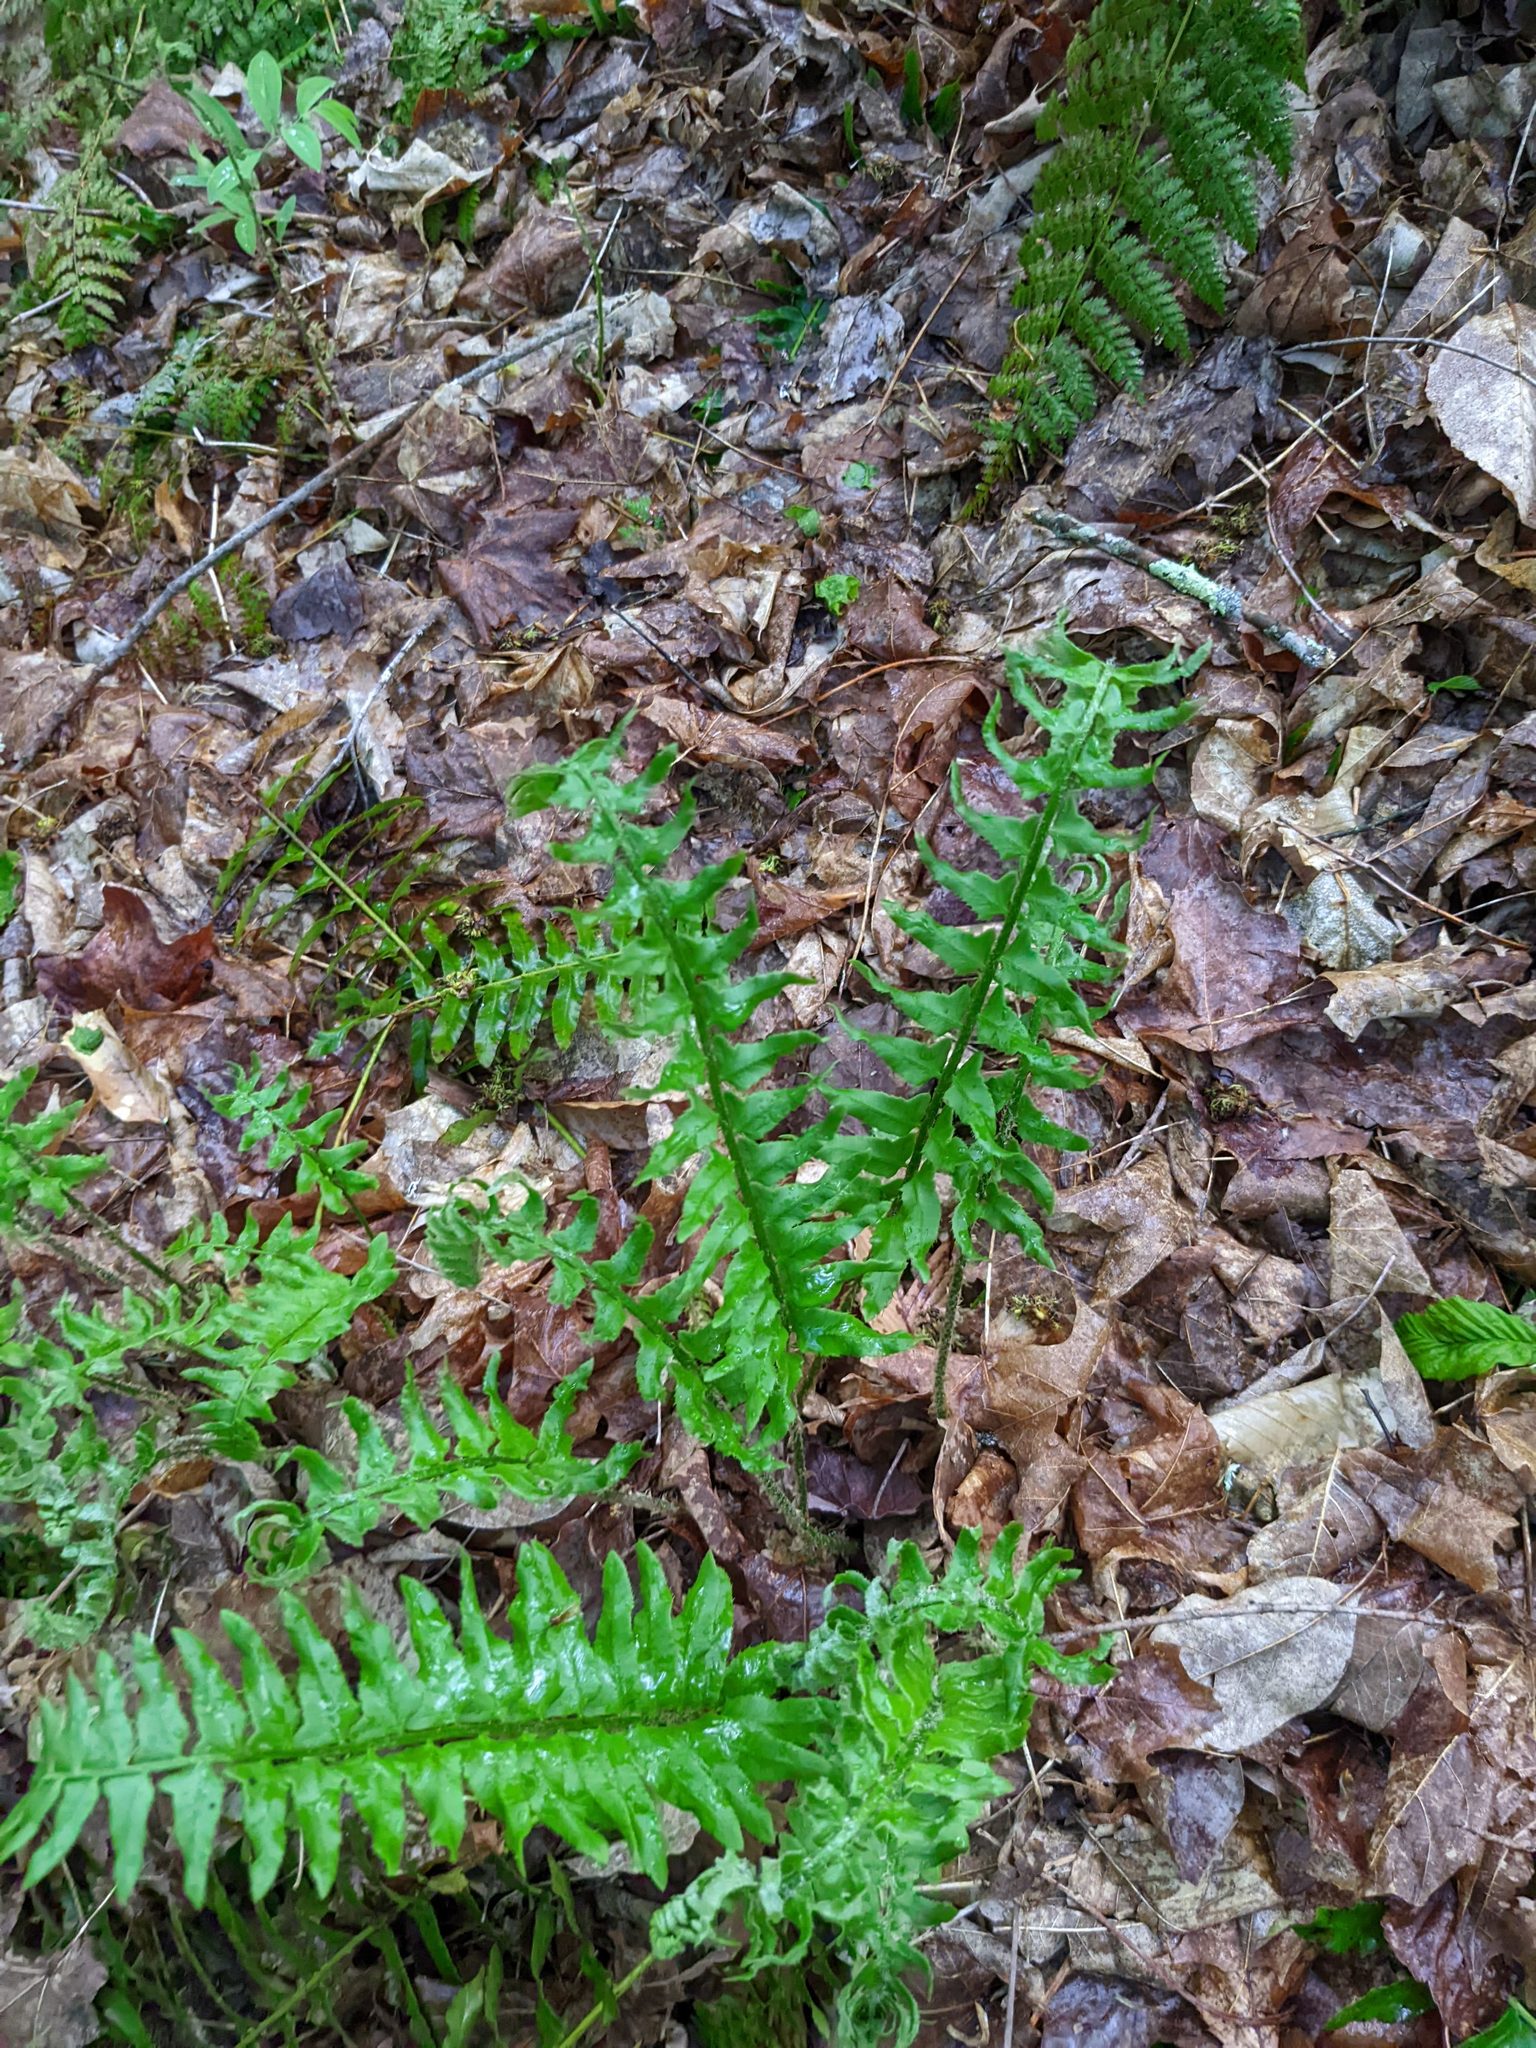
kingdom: Plantae
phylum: Tracheophyta
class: Polypodiopsida
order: Polypodiales
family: Dryopteridaceae
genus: Polystichum
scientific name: Polystichum acrostichoides
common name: Christmas fern
